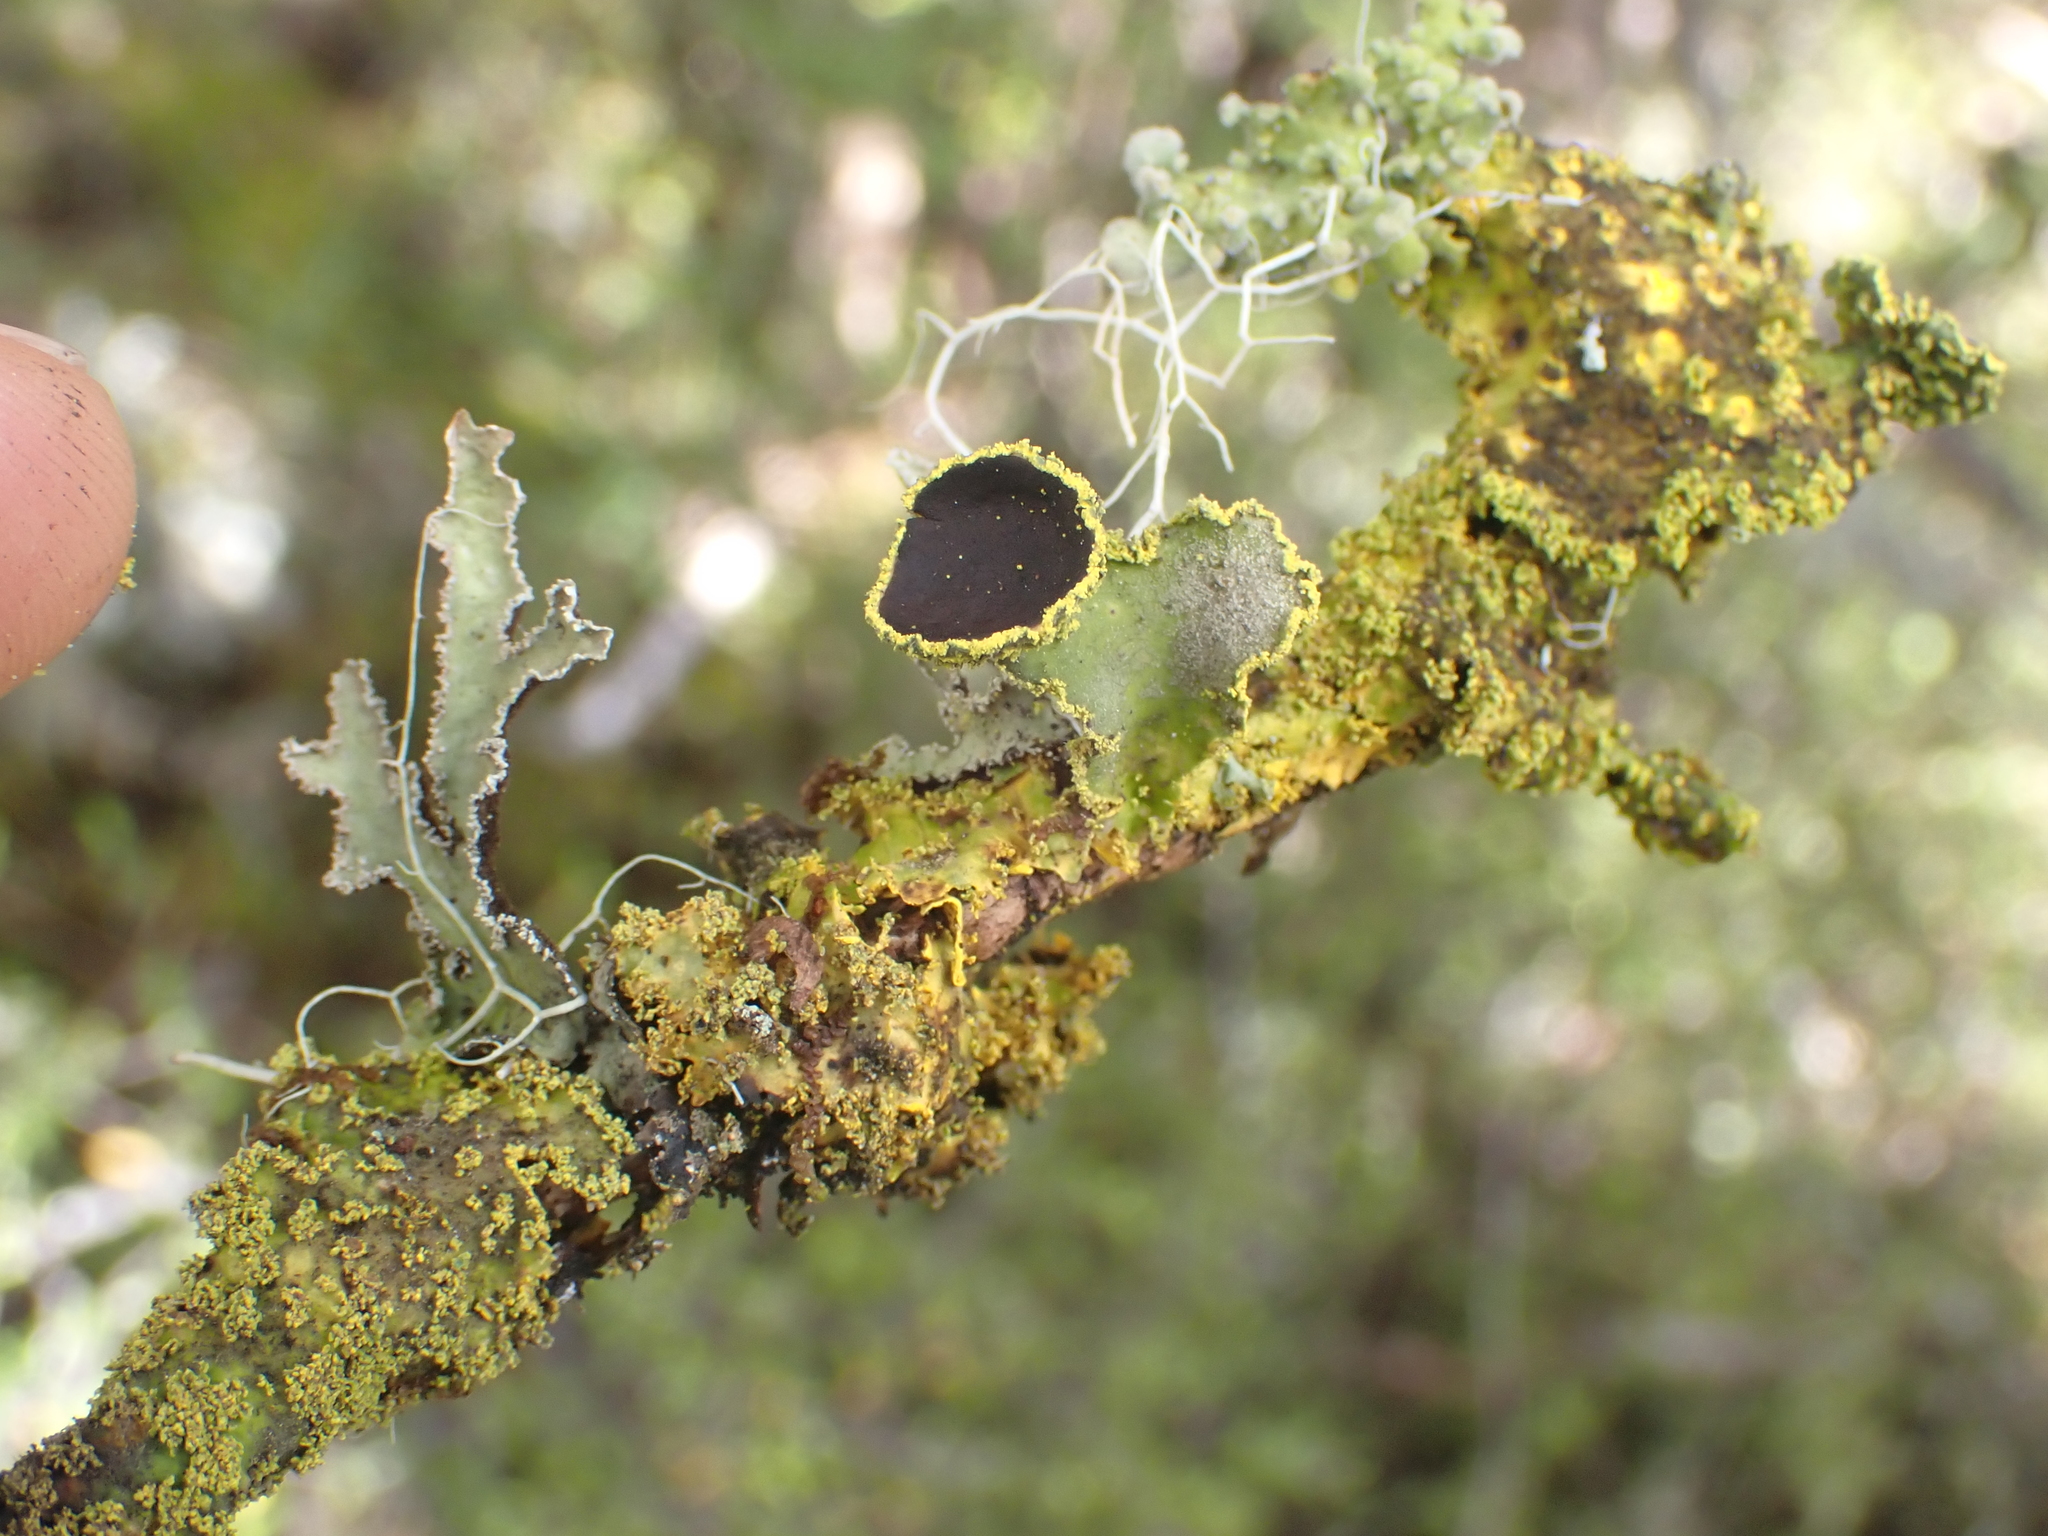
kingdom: Fungi
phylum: Ascomycota
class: Lecanoromycetes
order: Peltigerales
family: Lobariaceae
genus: Pseudocyphellaria
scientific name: Pseudocyphellaria rubella
